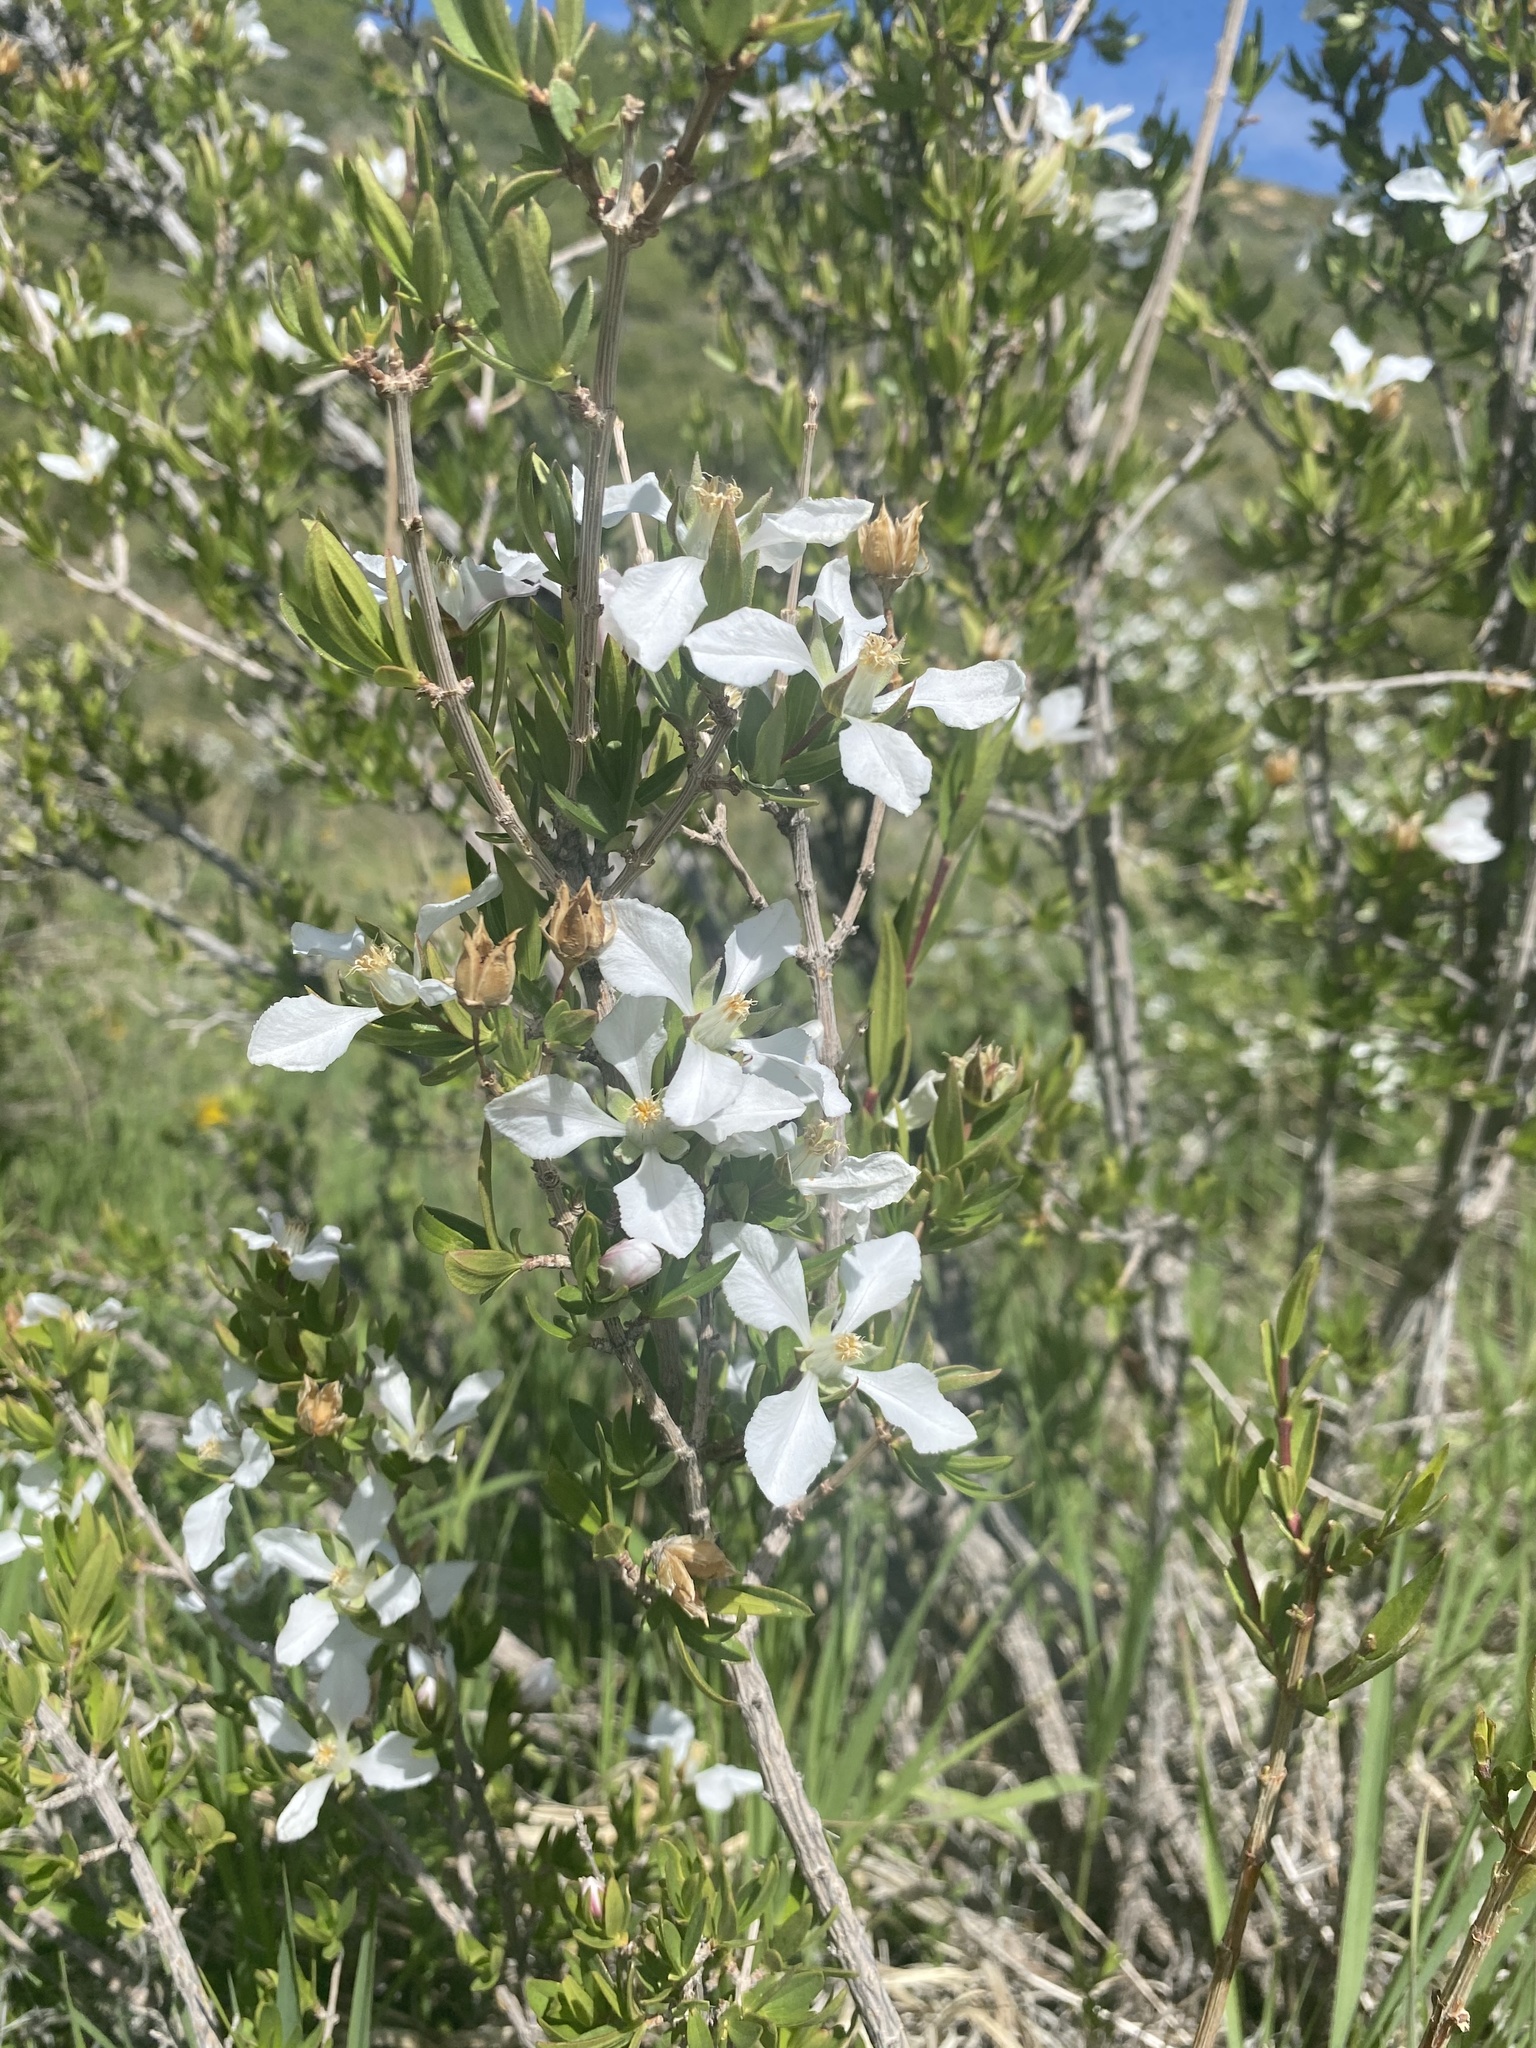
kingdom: Plantae
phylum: Tracheophyta
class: Magnoliopsida
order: Cornales
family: Hydrangeaceae
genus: Fendlera
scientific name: Fendlera rupicola
